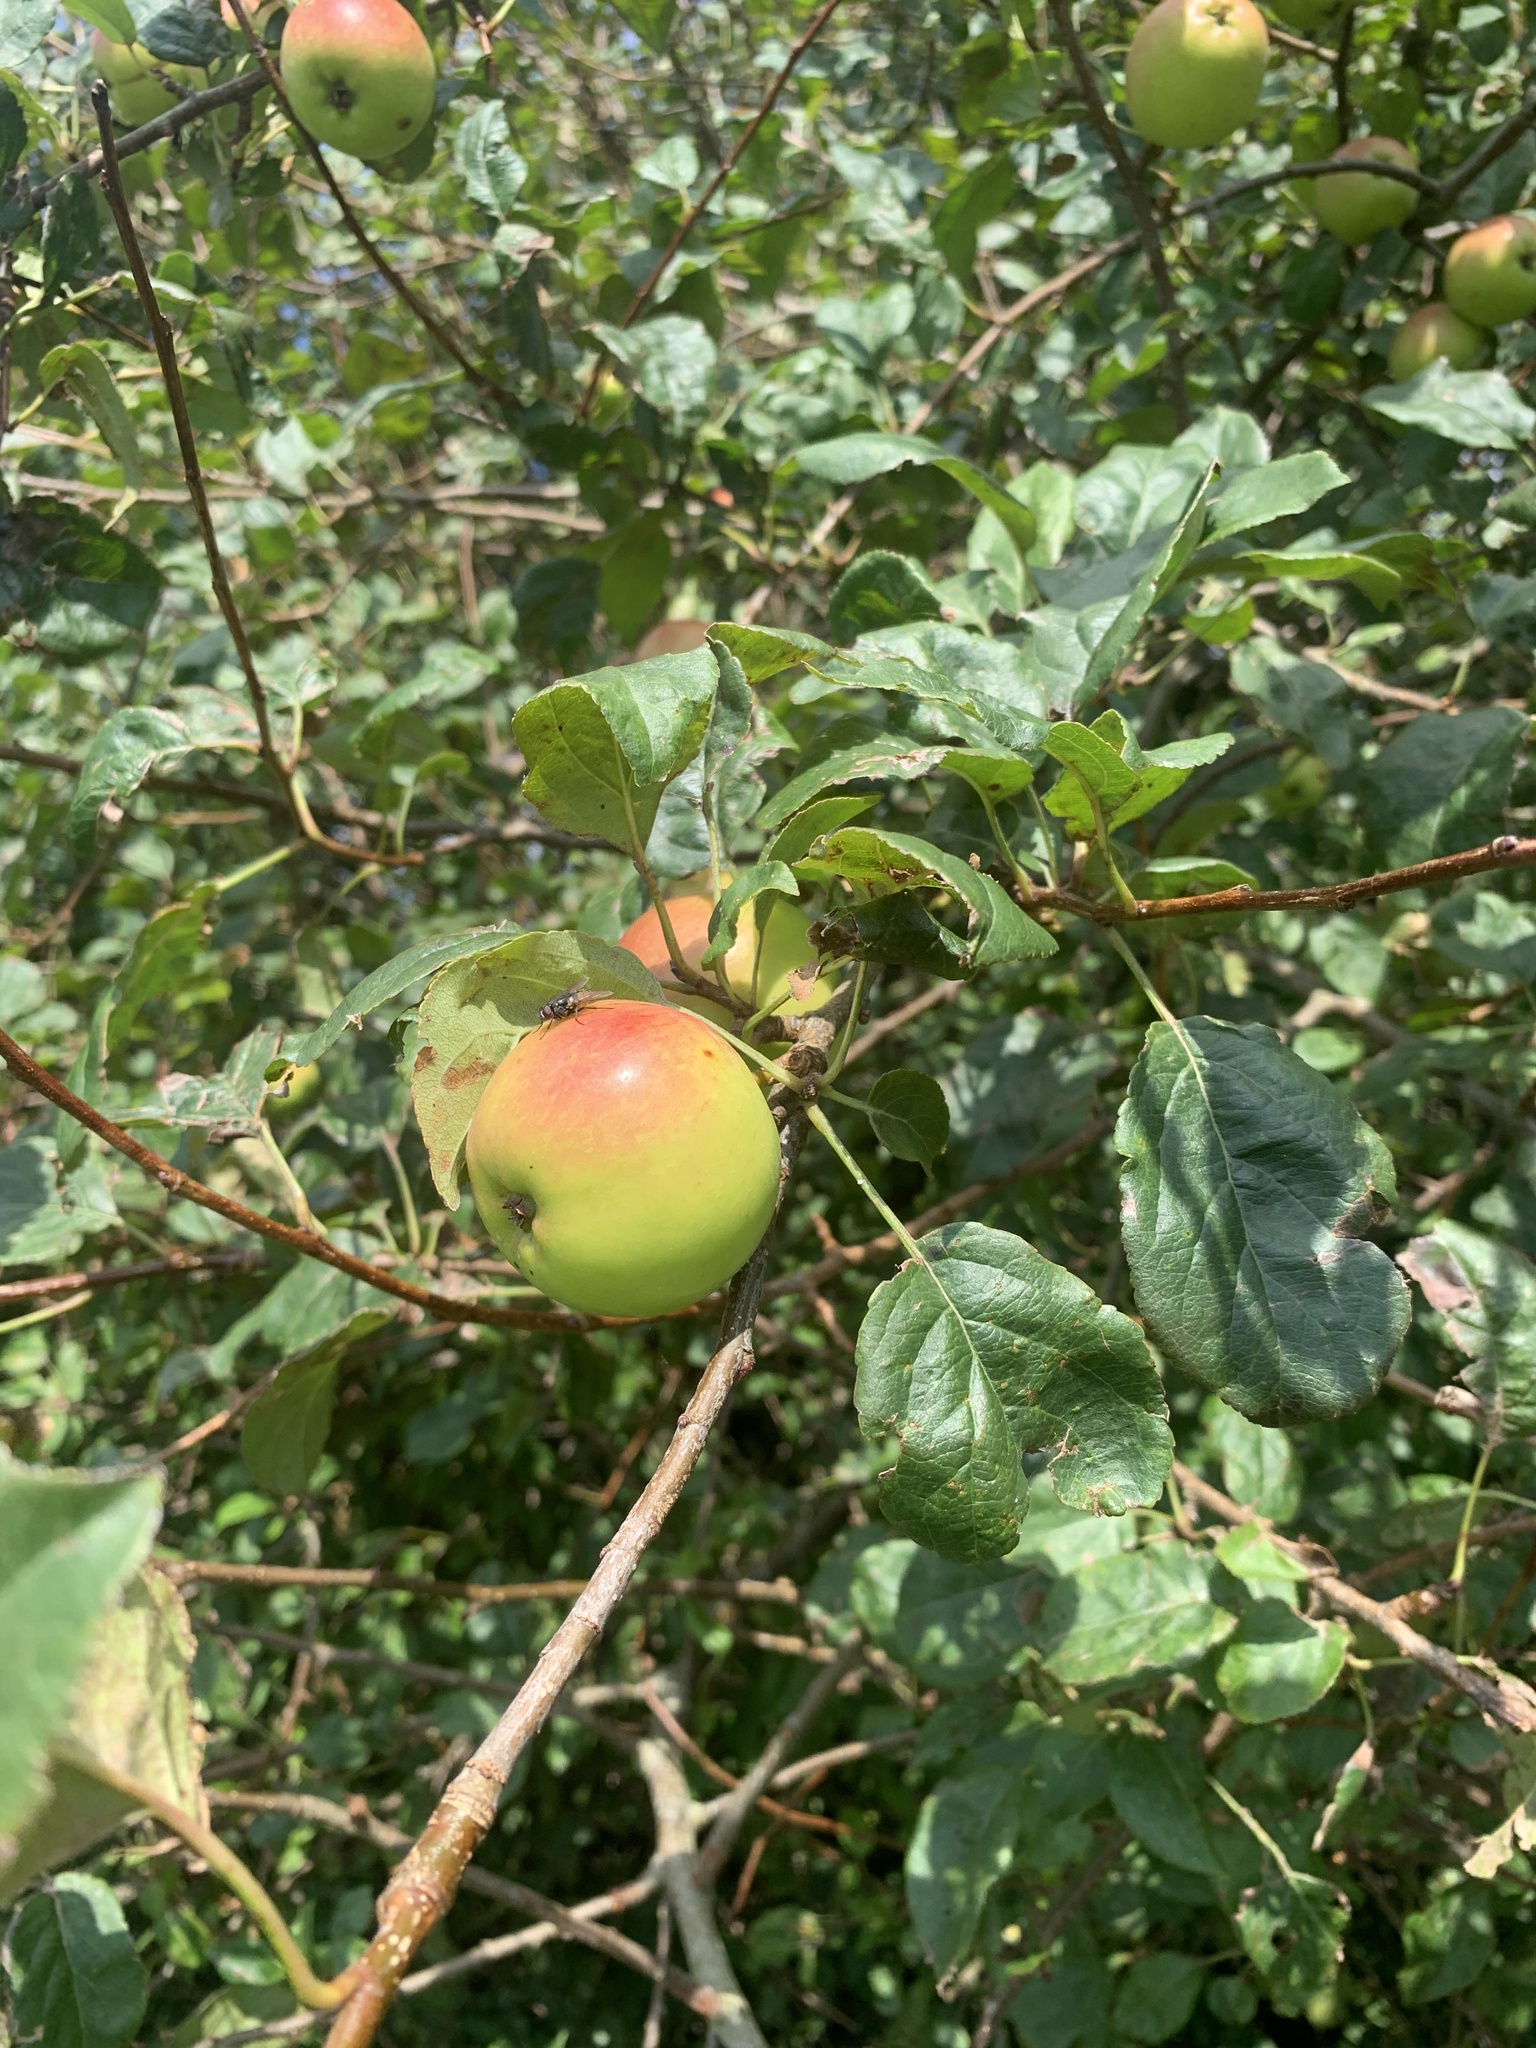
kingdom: Plantae
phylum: Tracheophyta
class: Magnoliopsida
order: Rosales
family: Rosaceae
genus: Malus
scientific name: Malus domestica
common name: Apple
